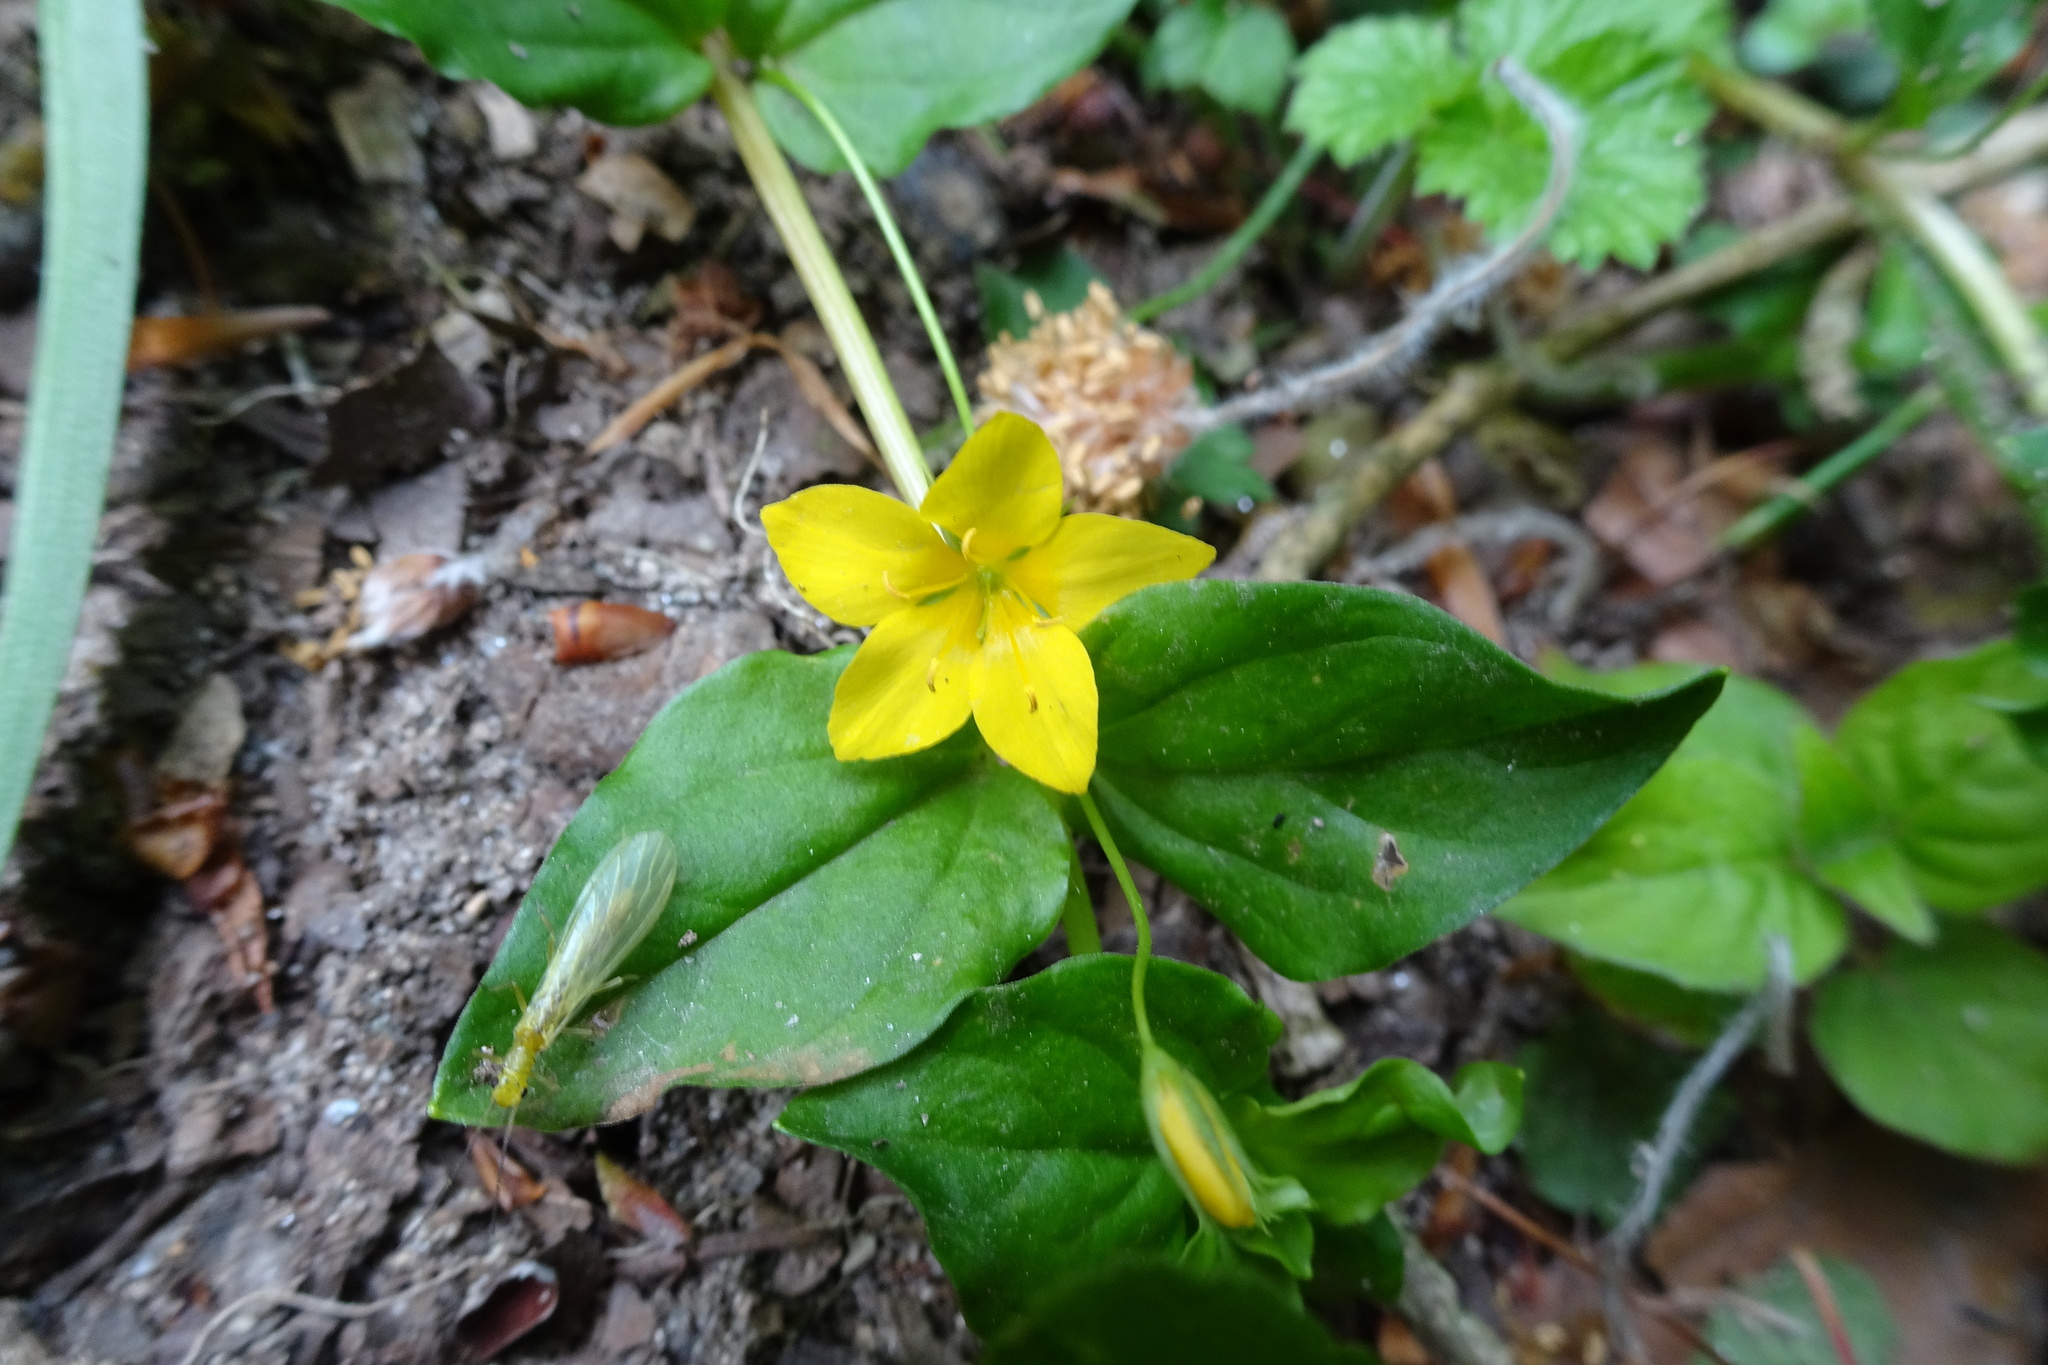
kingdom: Plantae
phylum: Tracheophyta
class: Magnoliopsida
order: Ericales
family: Primulaceae
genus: Lysimachia
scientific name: Lysimachia nemorum
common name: Yellow pimpernel
